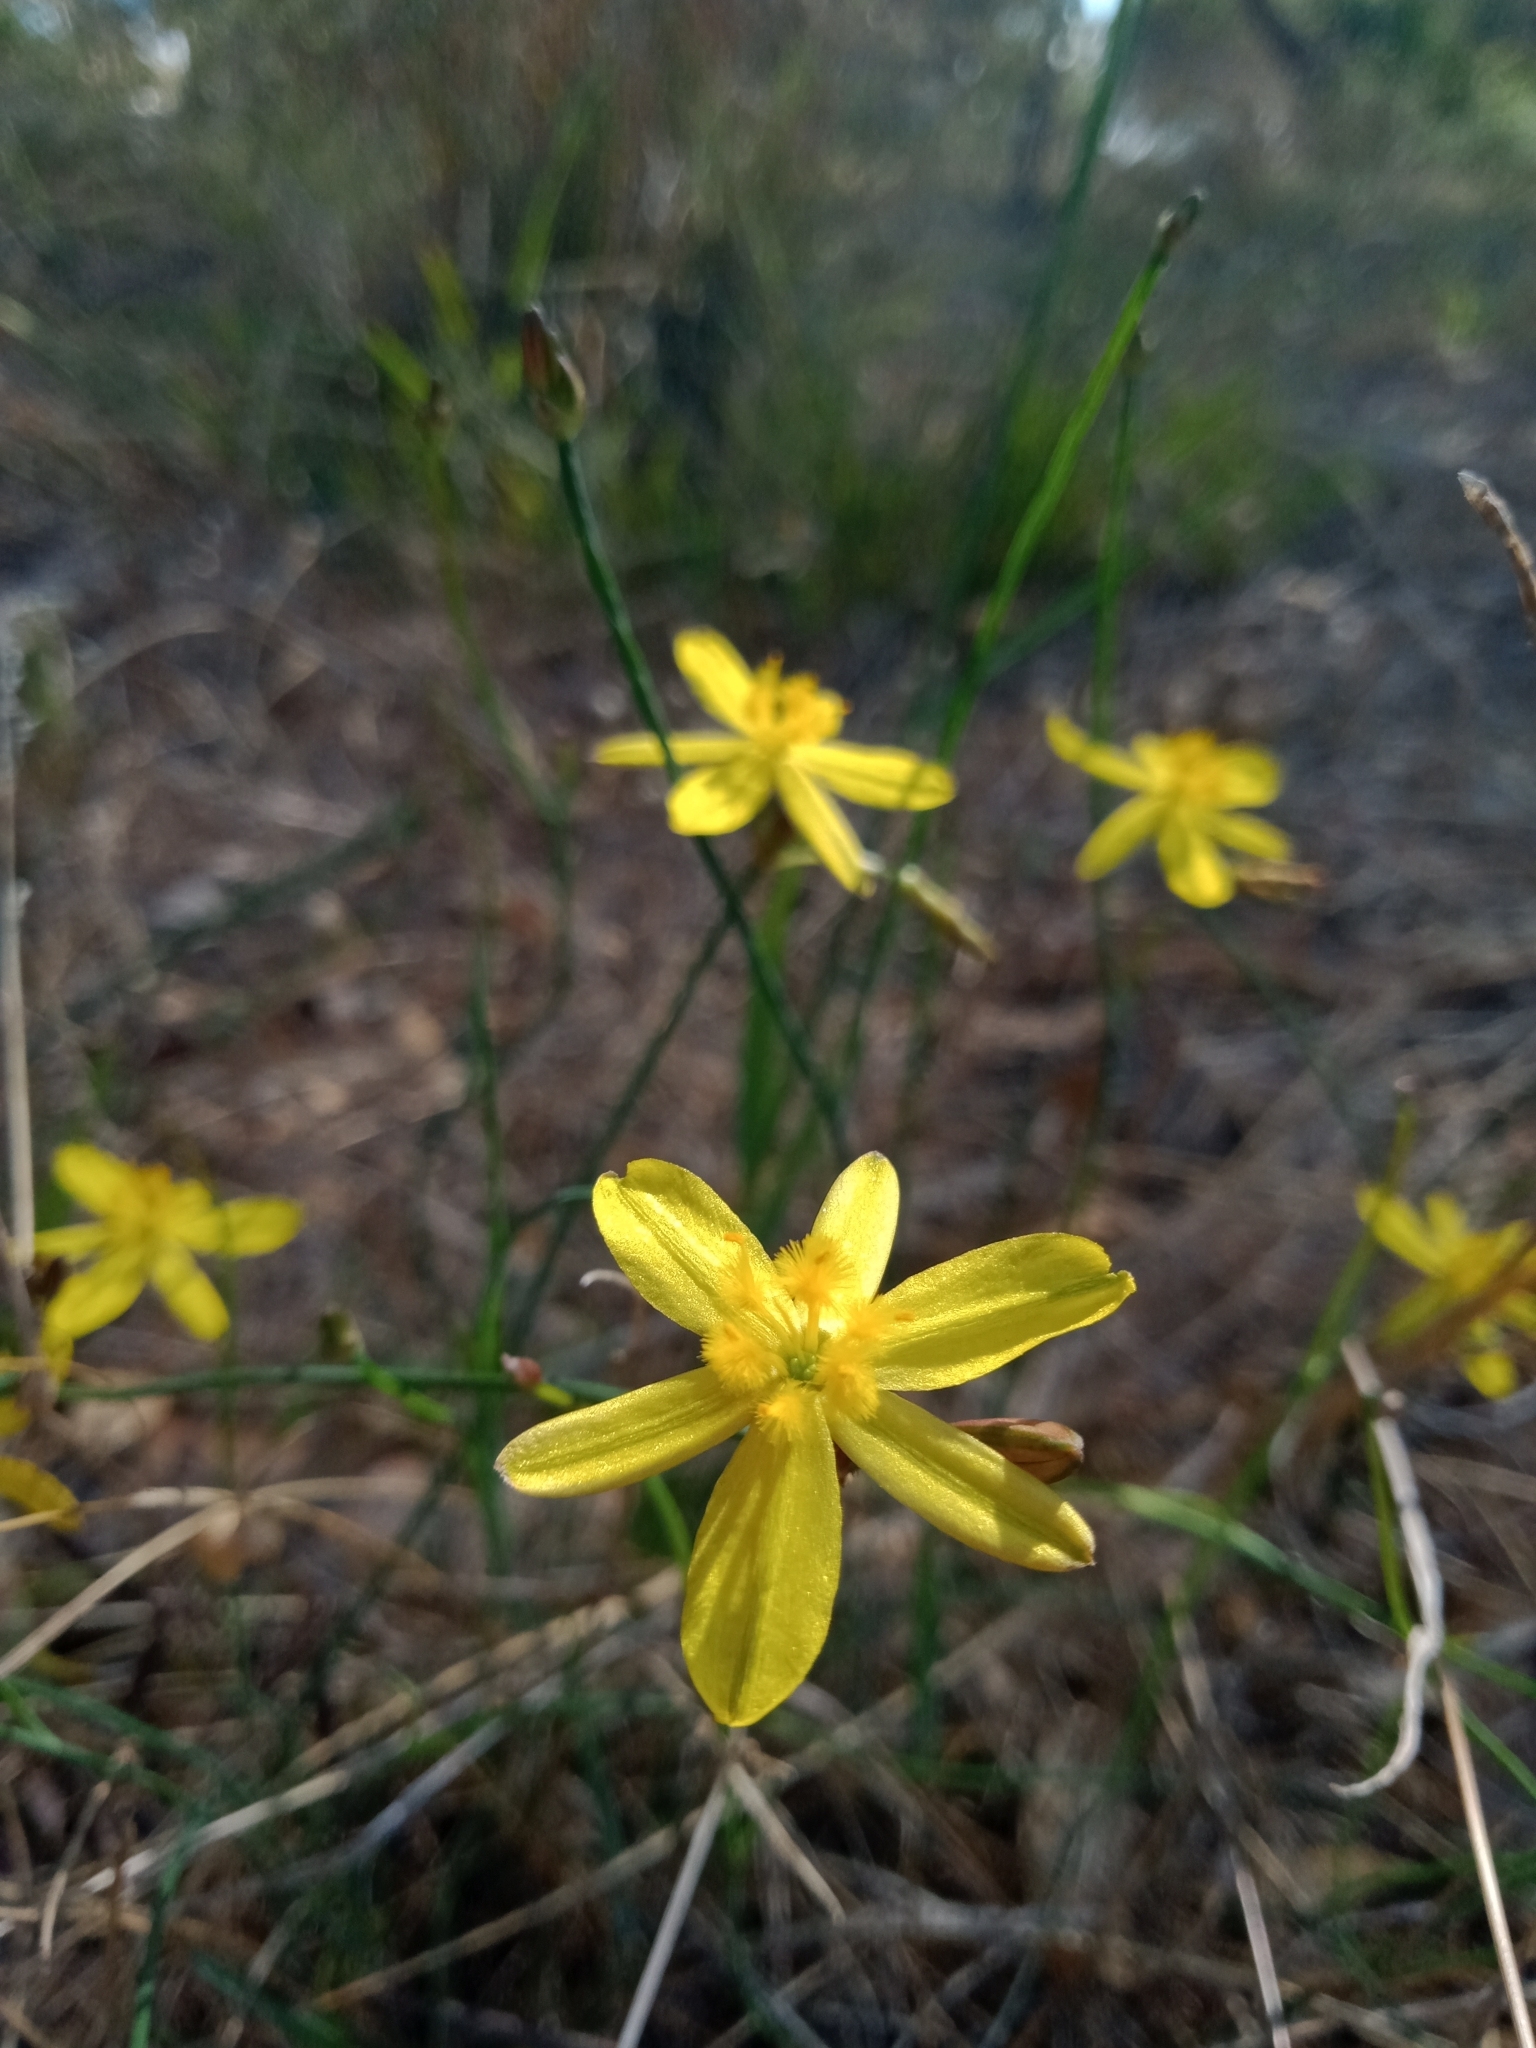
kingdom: Plantae
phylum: Tracheophyta
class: Liliopsida
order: Asparagales
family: Asphodelaceae
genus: Tricoryne
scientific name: Tricoryne elatior
